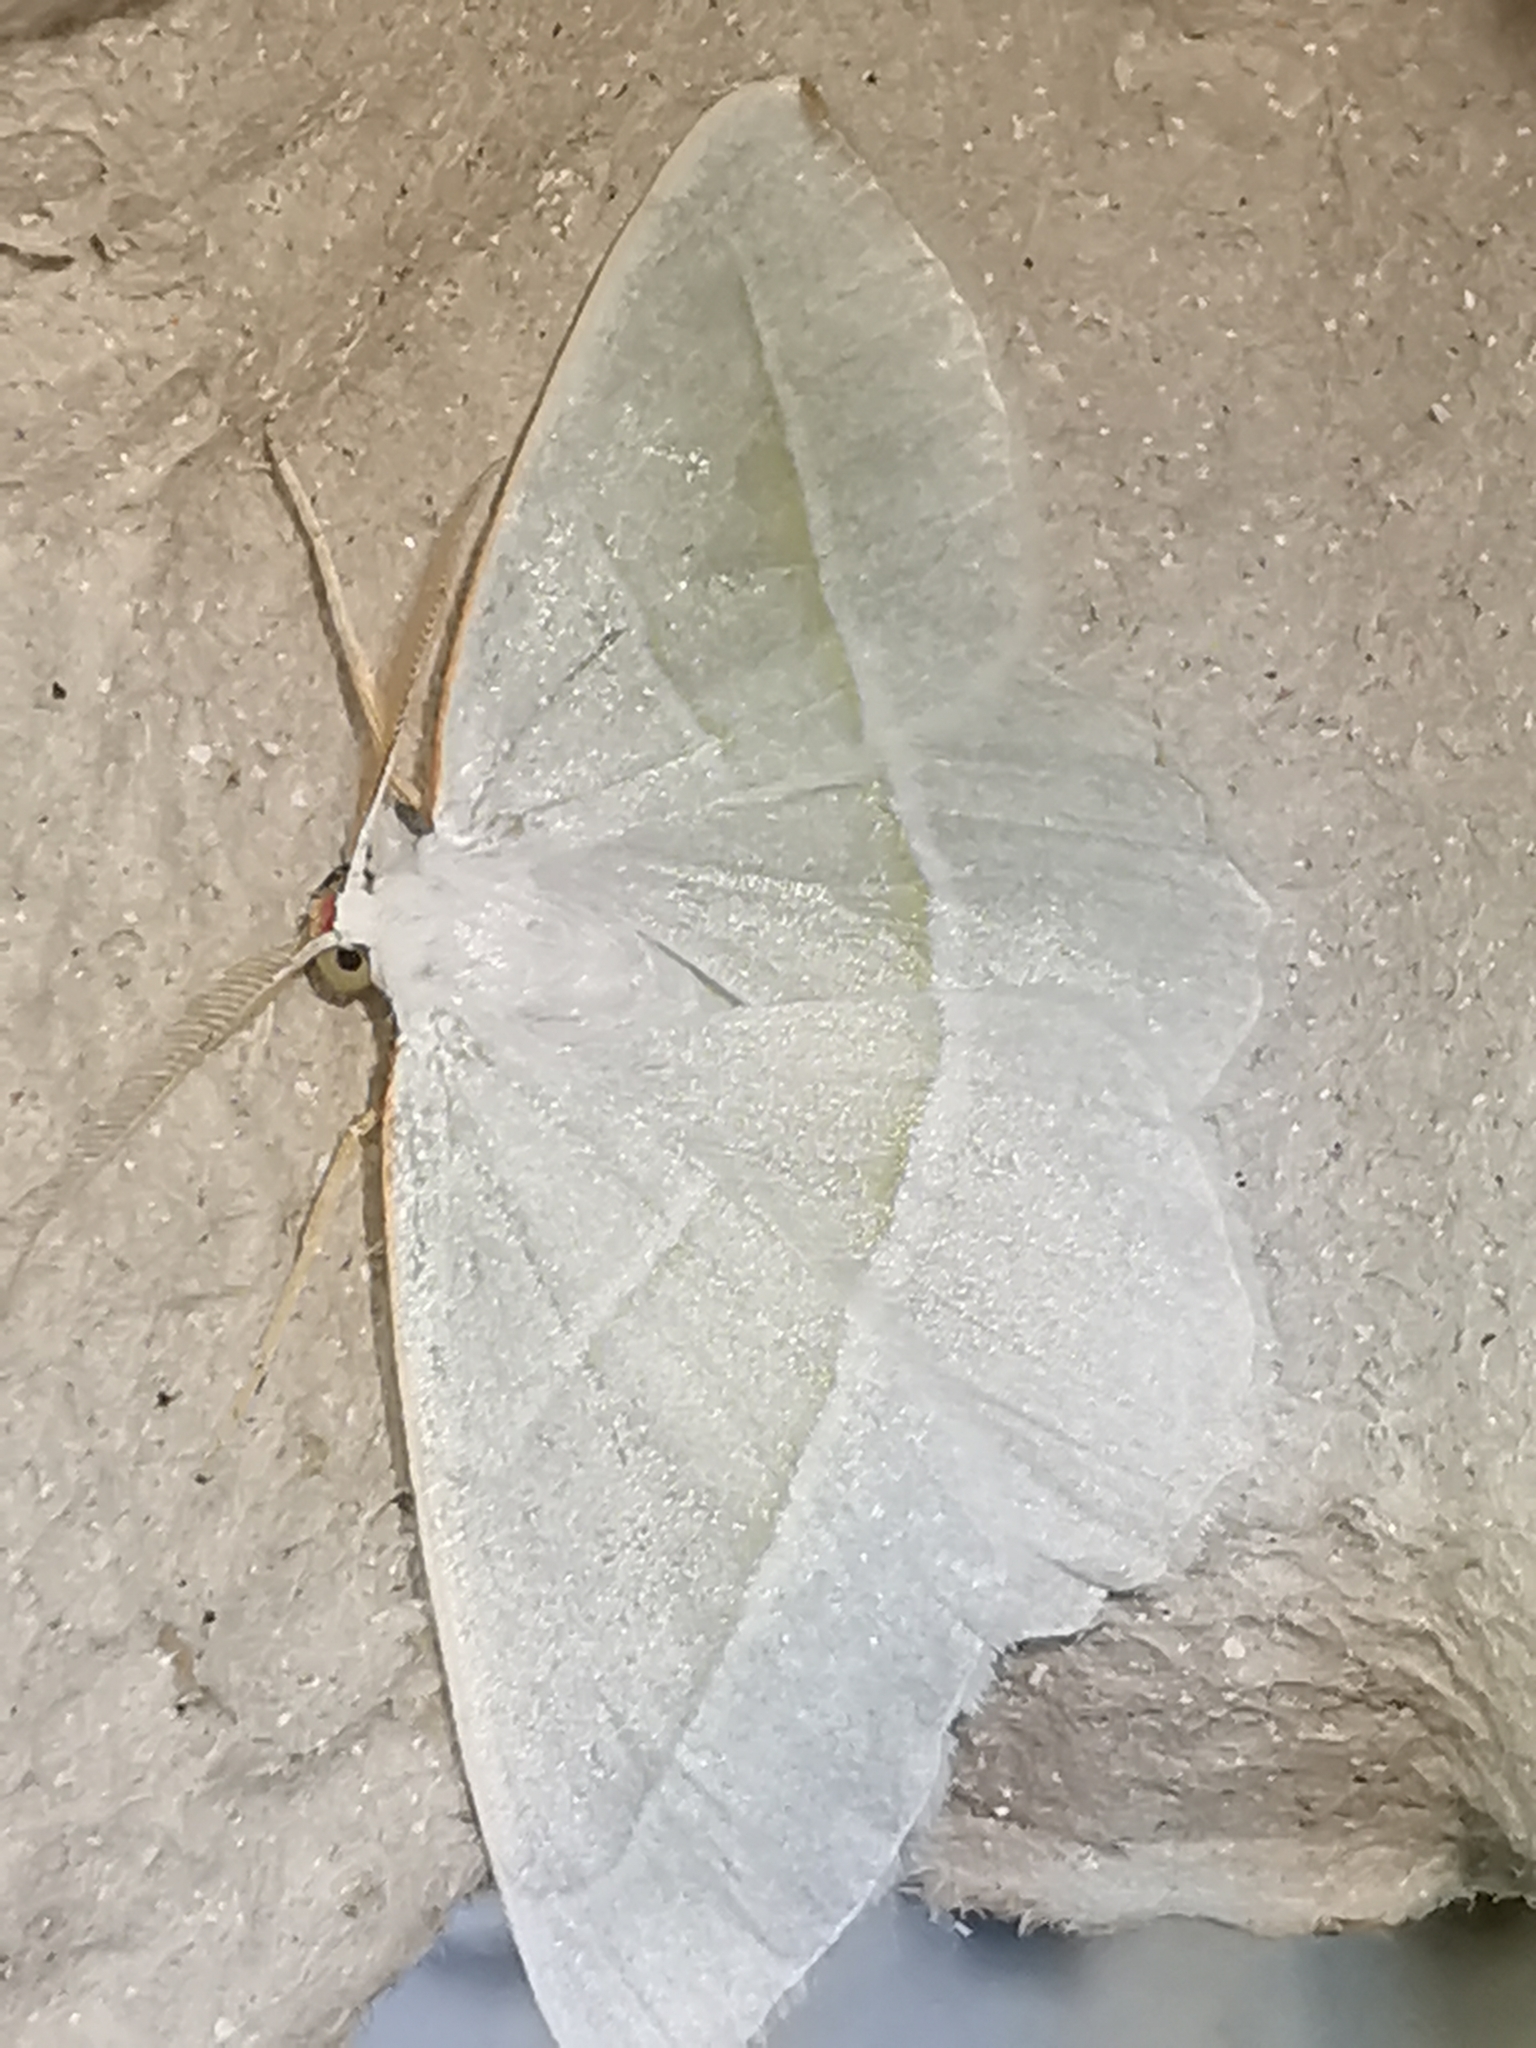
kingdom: Animalia
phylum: Arthropoda
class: Insecta
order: Lepidoptera
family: Geometridae
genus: Campaea
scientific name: Campaea margaritaria
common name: Light emerald
